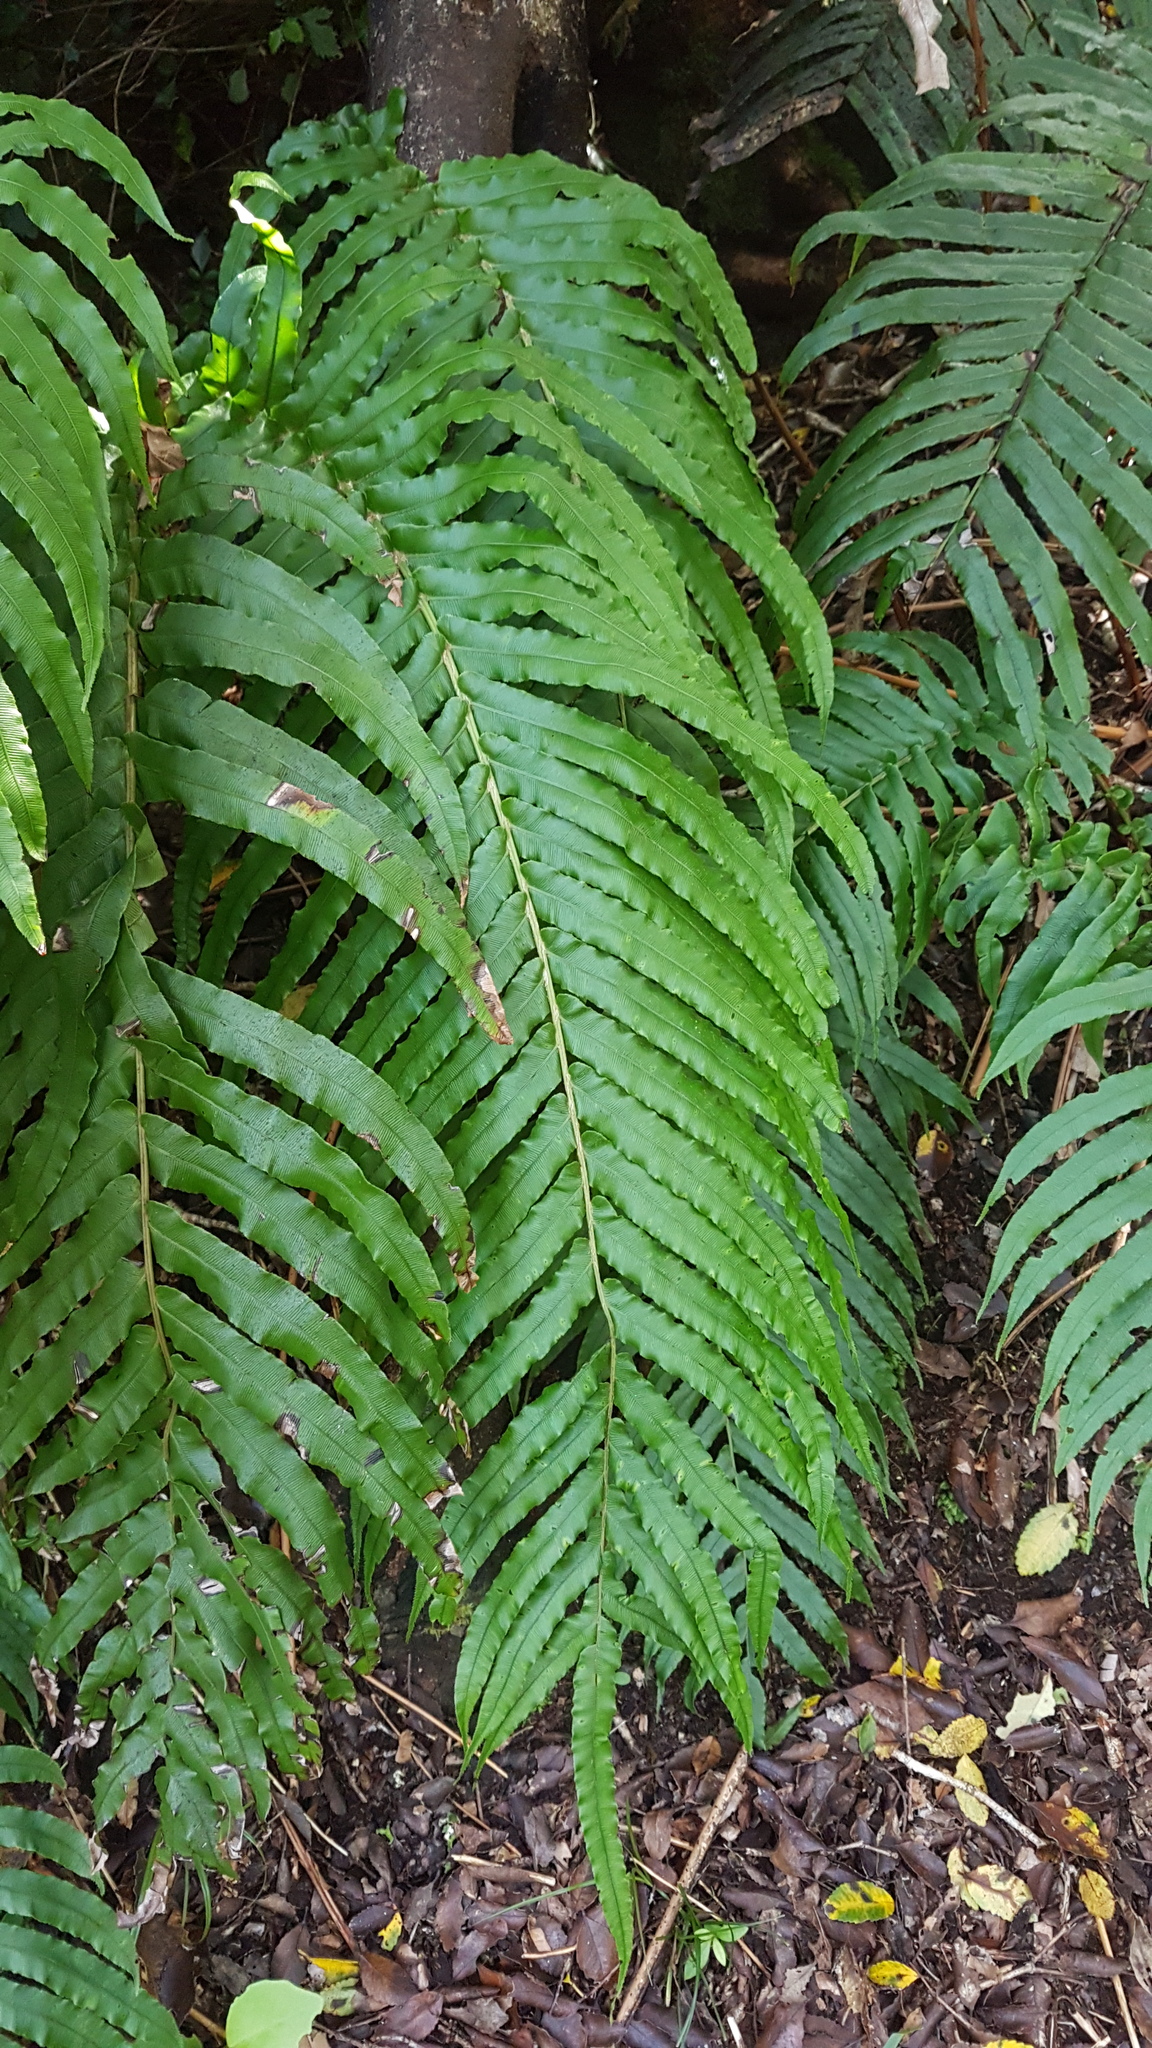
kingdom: Plantae
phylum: Tracheophyta
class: Polypodiopsida
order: Polypodiales
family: Blechnaceae
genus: Parablechnum
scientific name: Parablechnum novae-zelandiae
